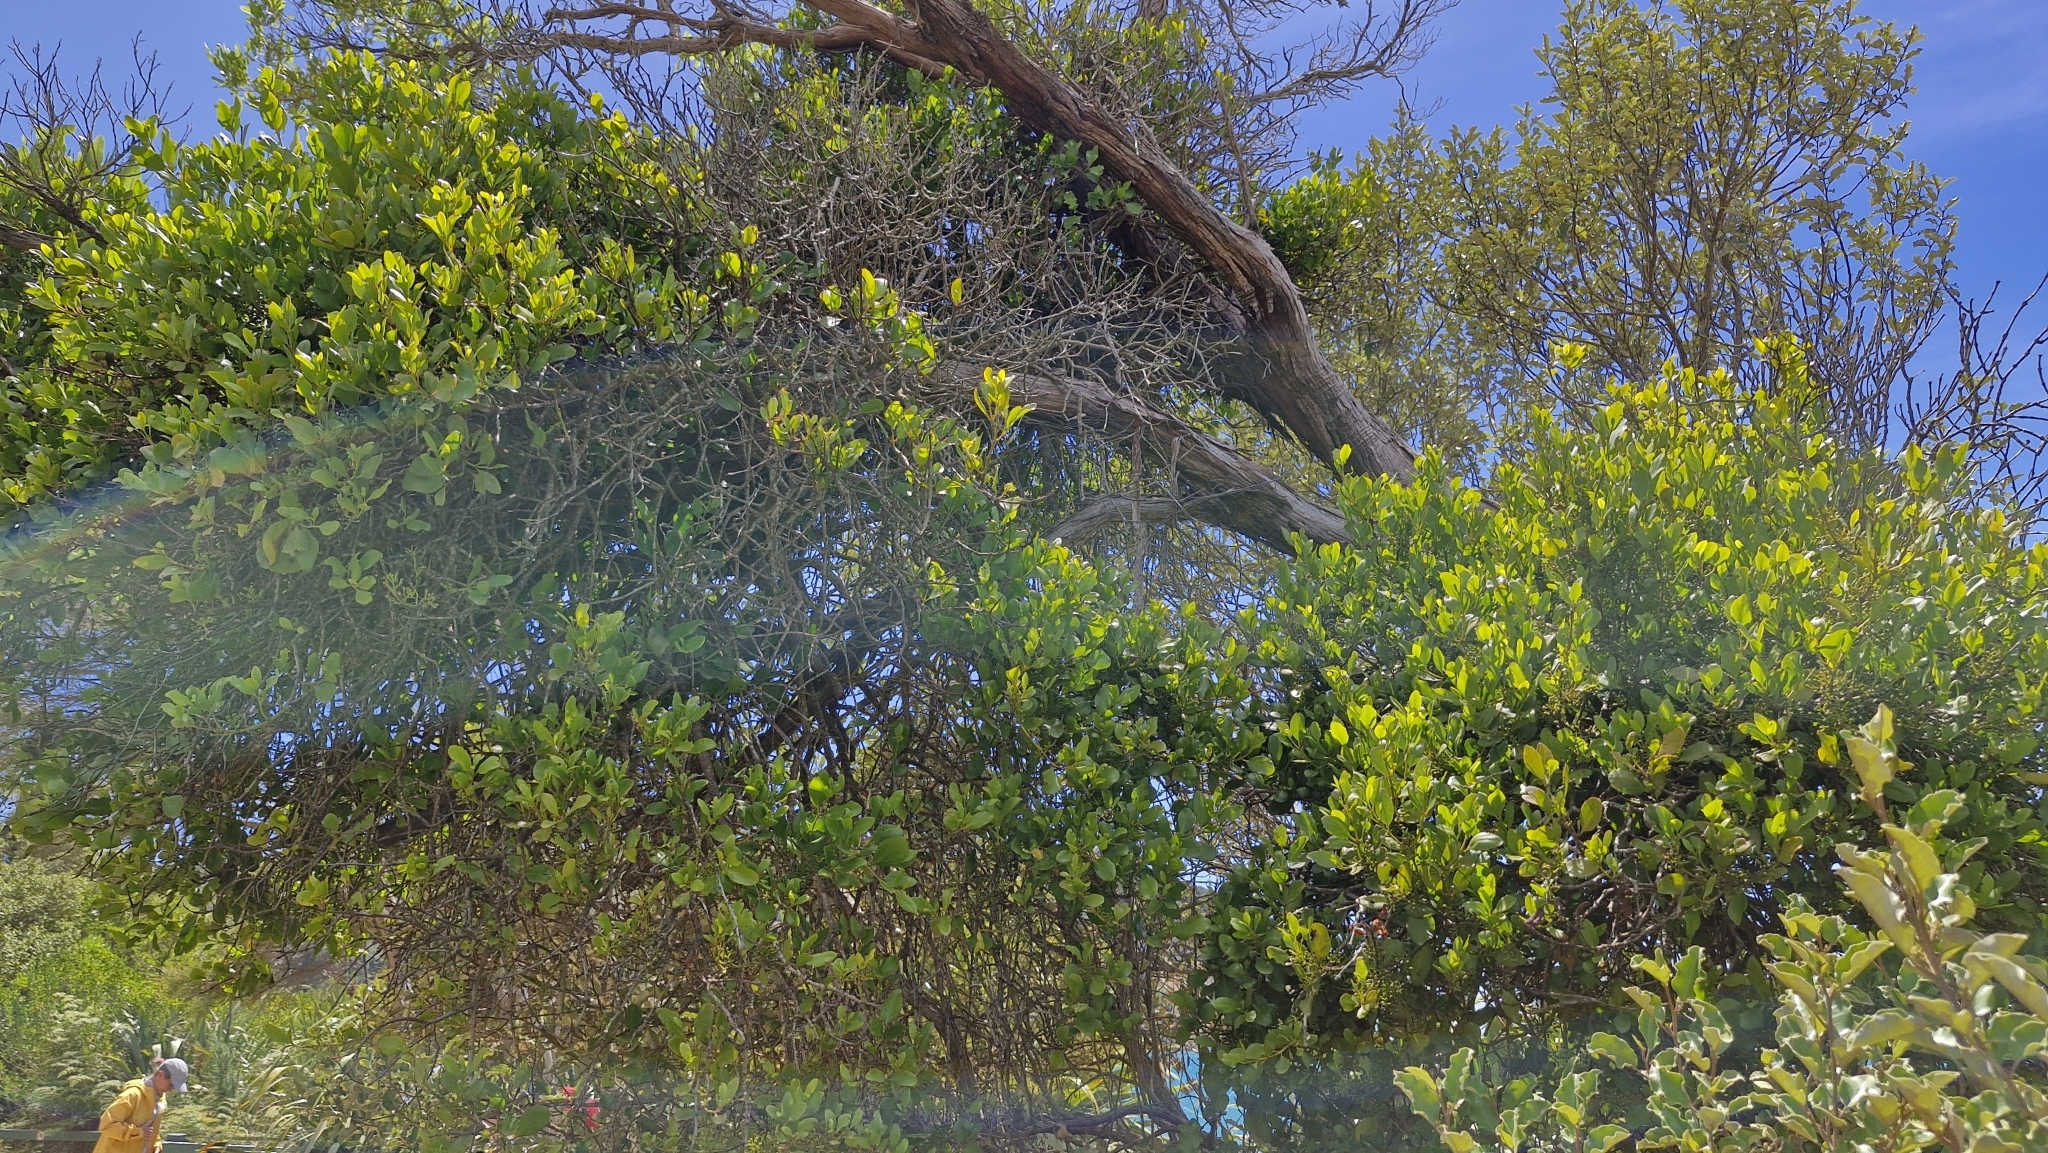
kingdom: Plantae
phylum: Tracheophyta
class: Magnoliopsida
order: Santalales
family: Loranthaceae
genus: Peraxilla
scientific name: Peraxilla tetrapetala
